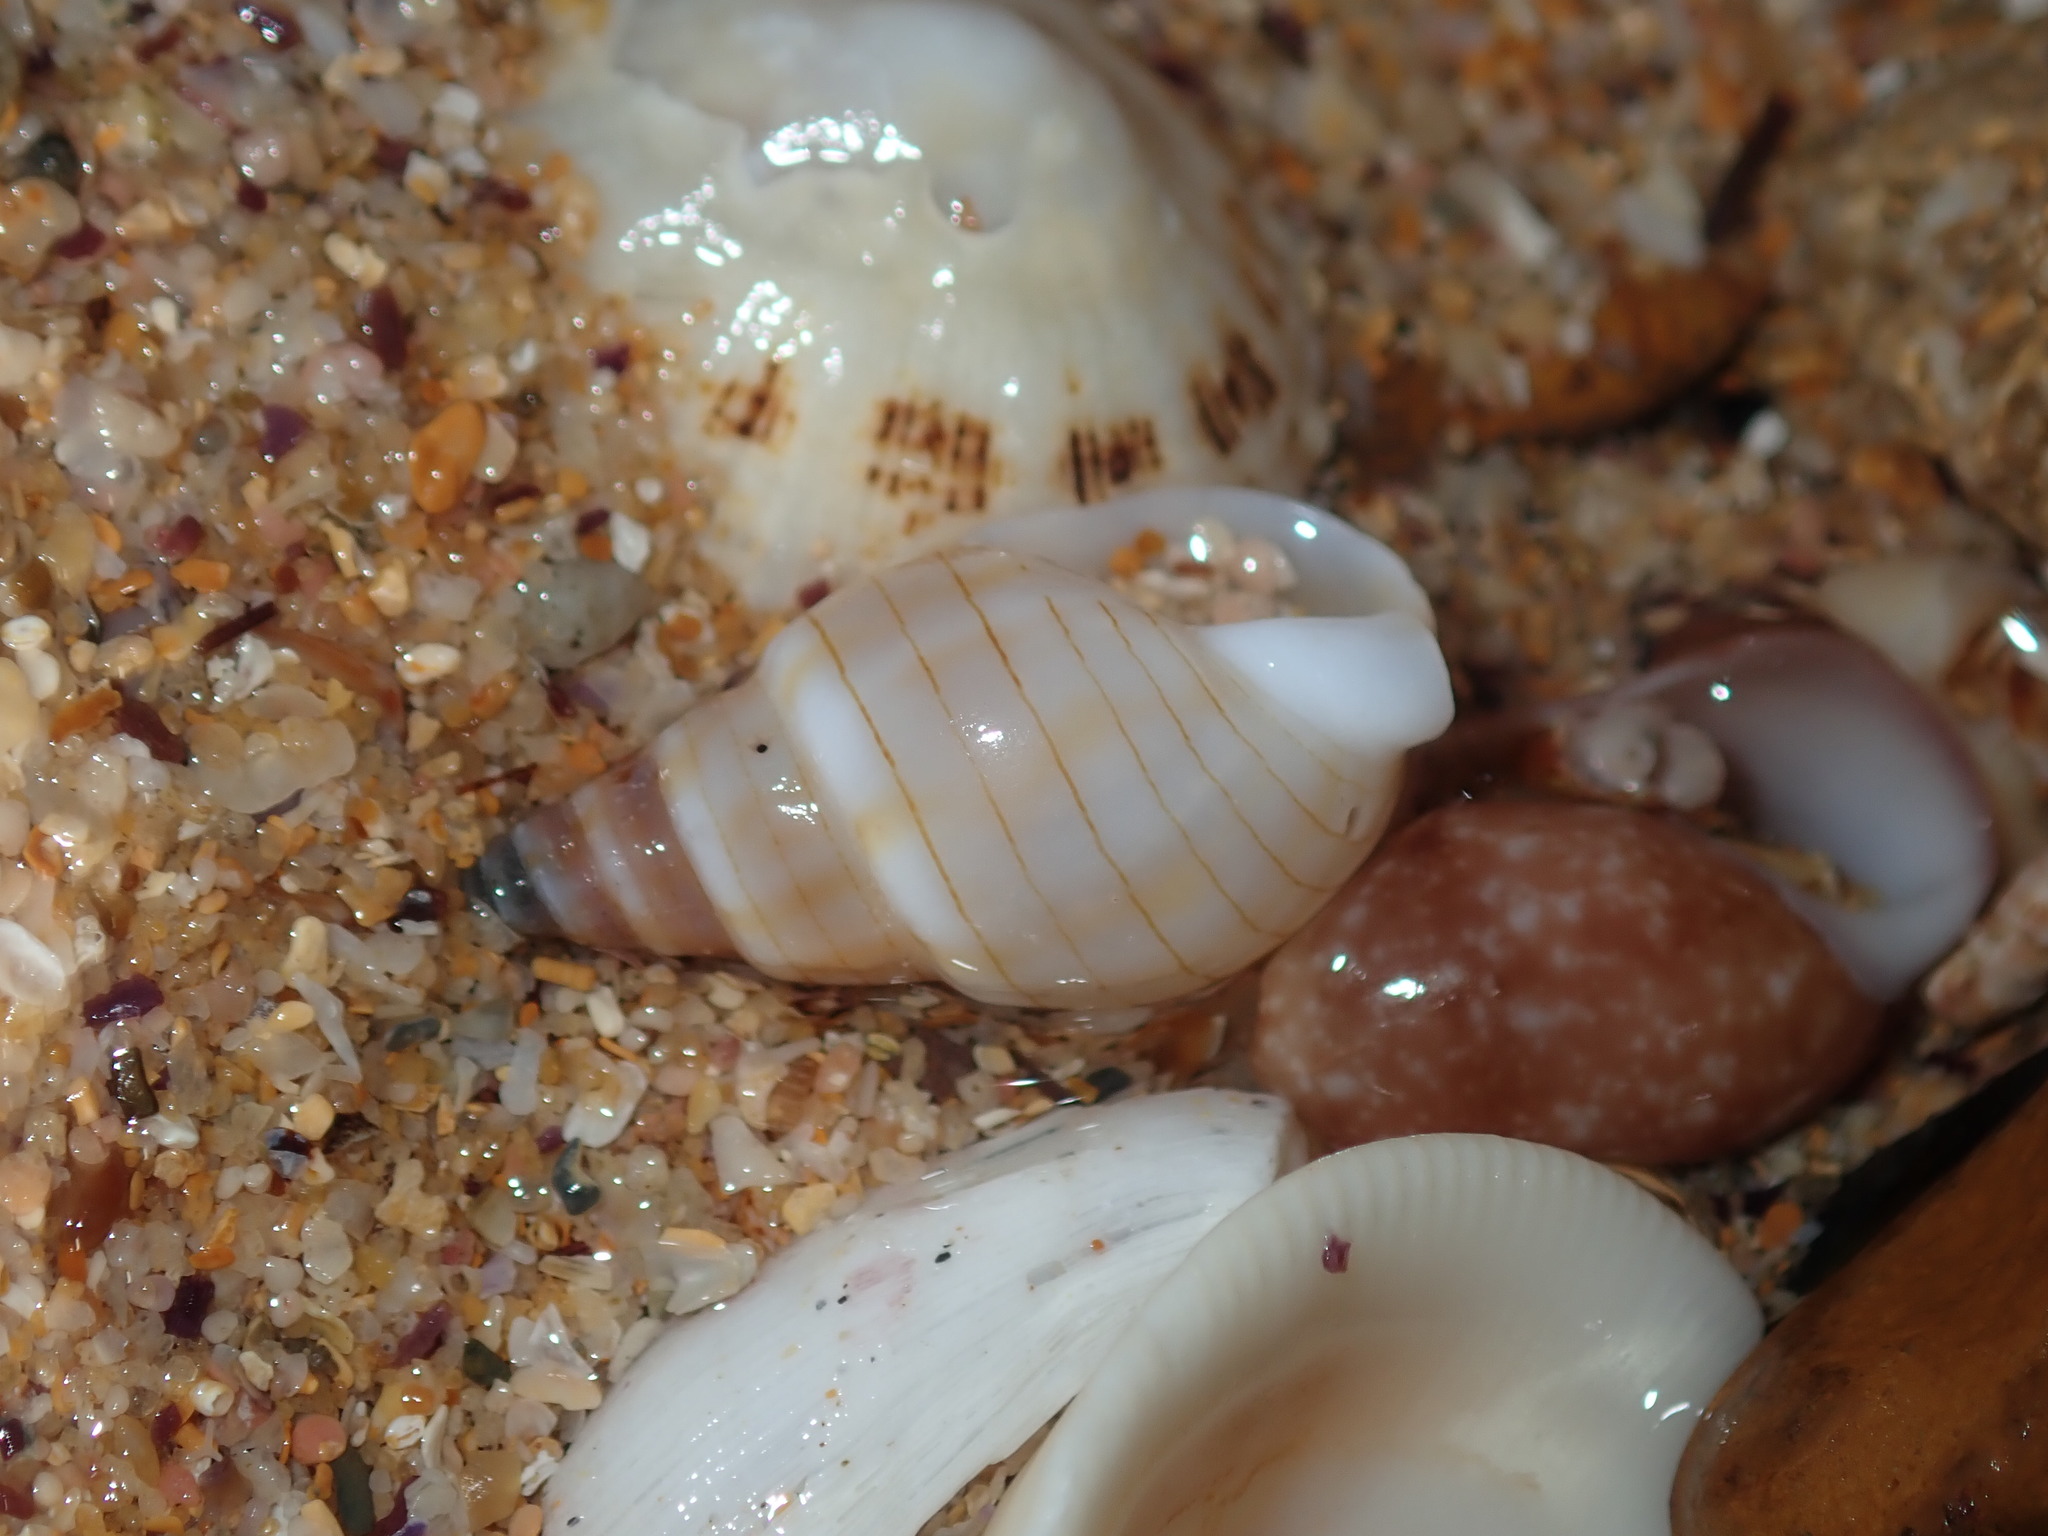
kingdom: Animalia
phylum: Mollusca
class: Gastropoda
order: Neogastropoda
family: Nassariidae
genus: Nassarius
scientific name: Nassarius particeps
